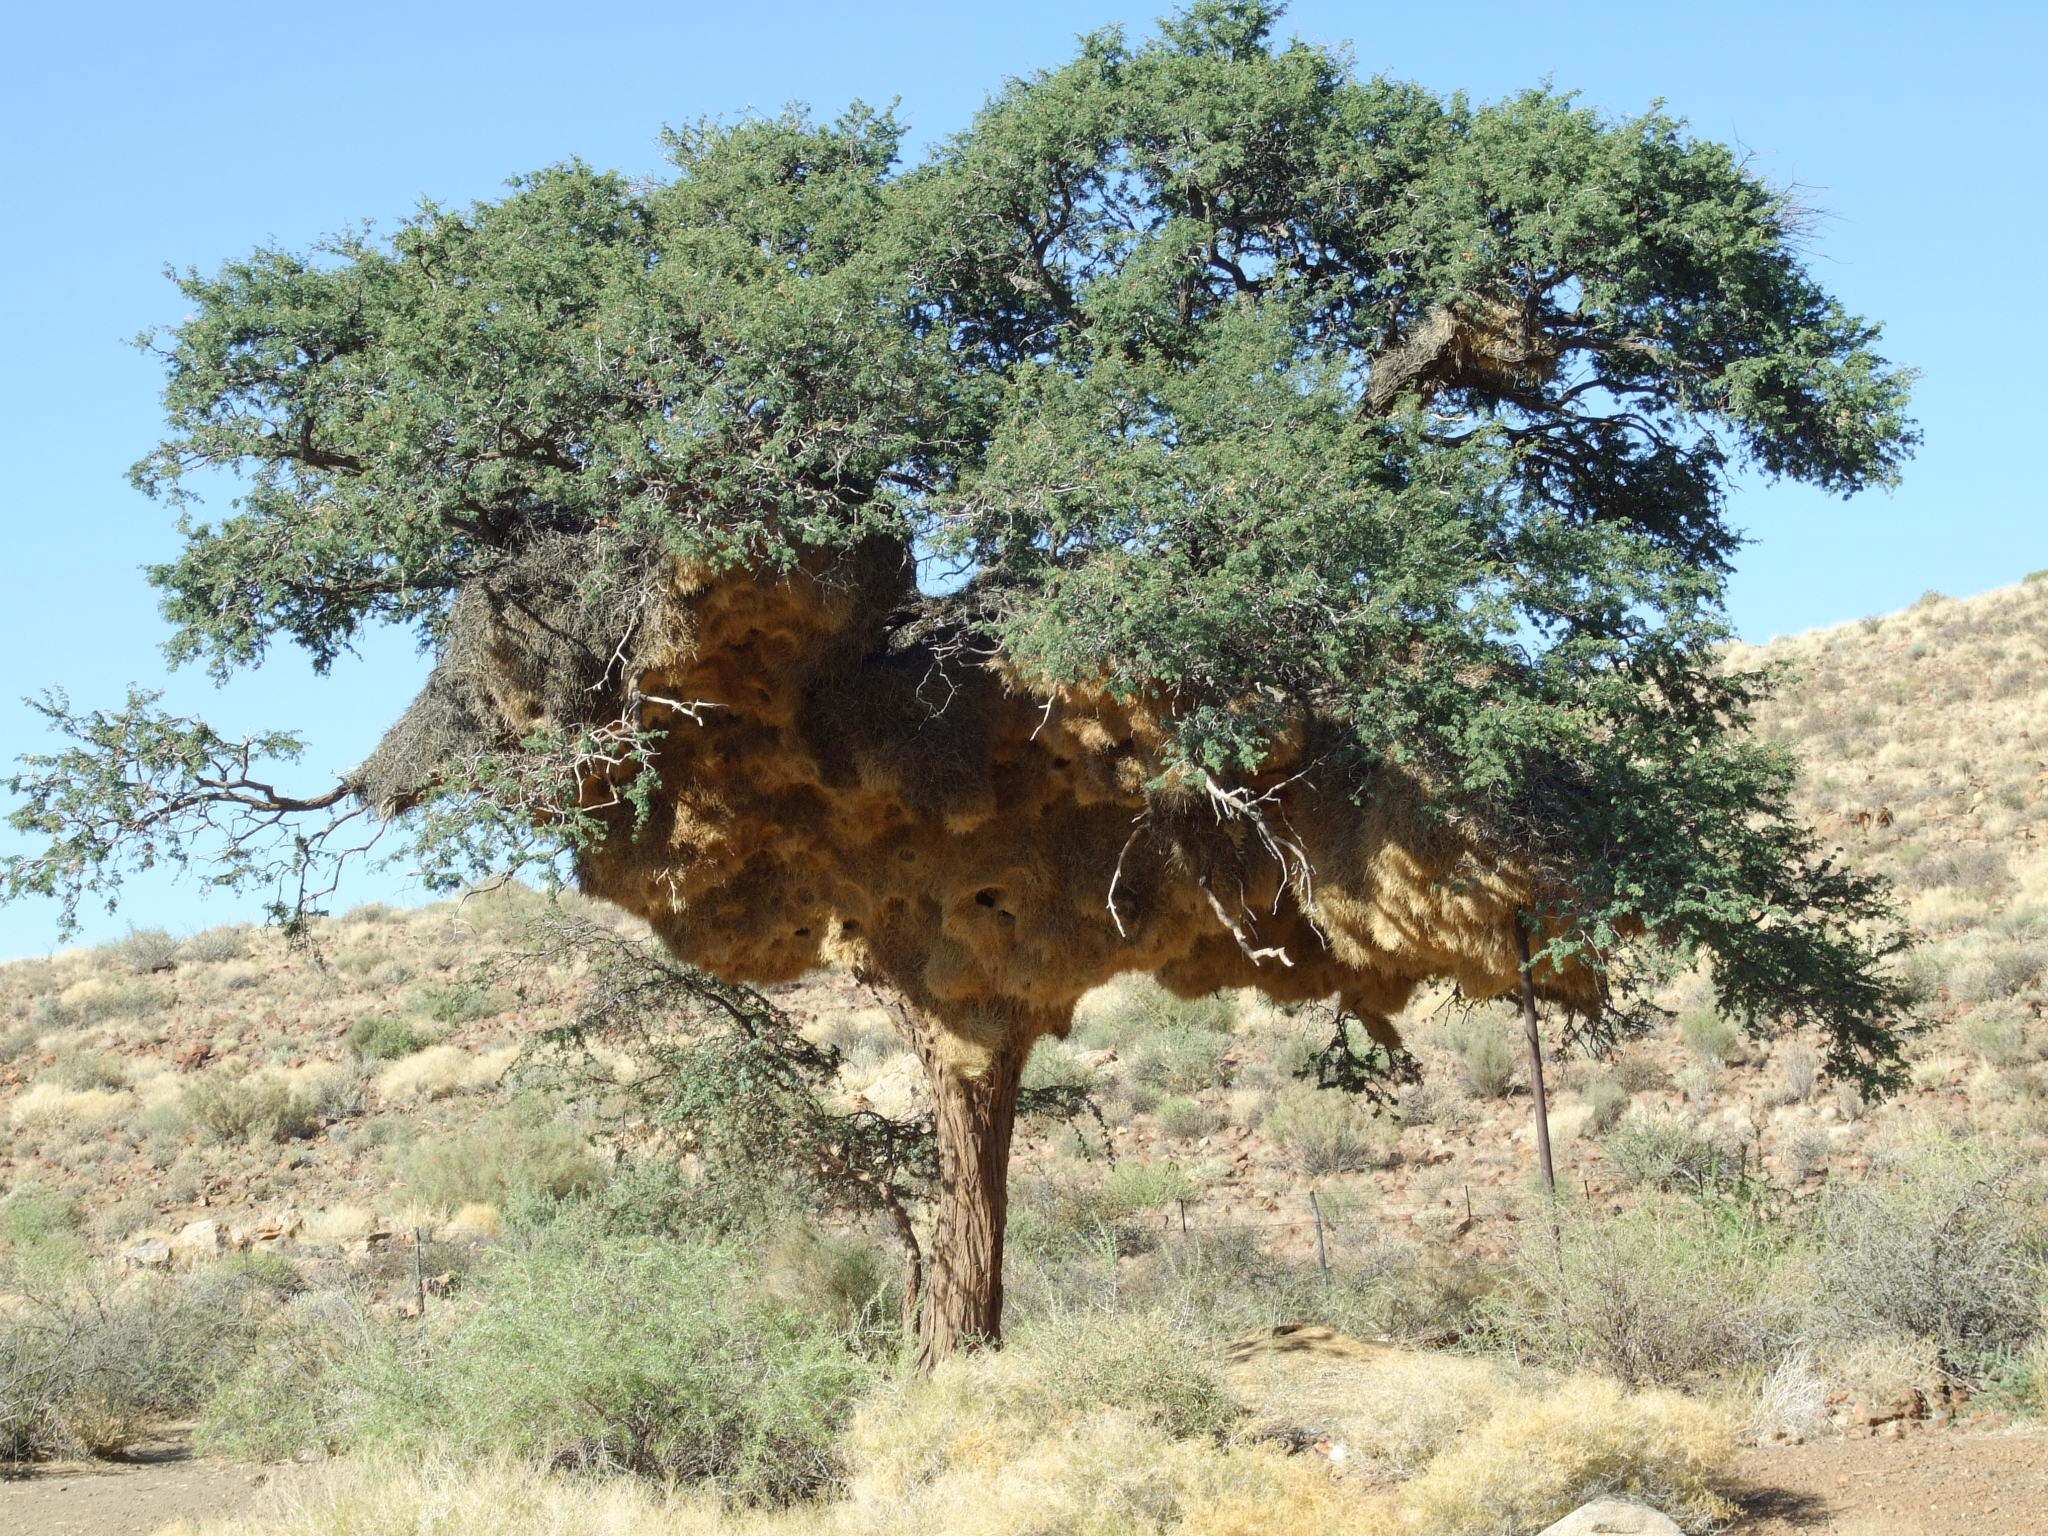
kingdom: Plantae
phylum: Tracheophyta
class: Magnoliopsida
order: Fabales
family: Fabaceae
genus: Vachellia
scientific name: Vachellia erioloba
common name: Camel thorn
